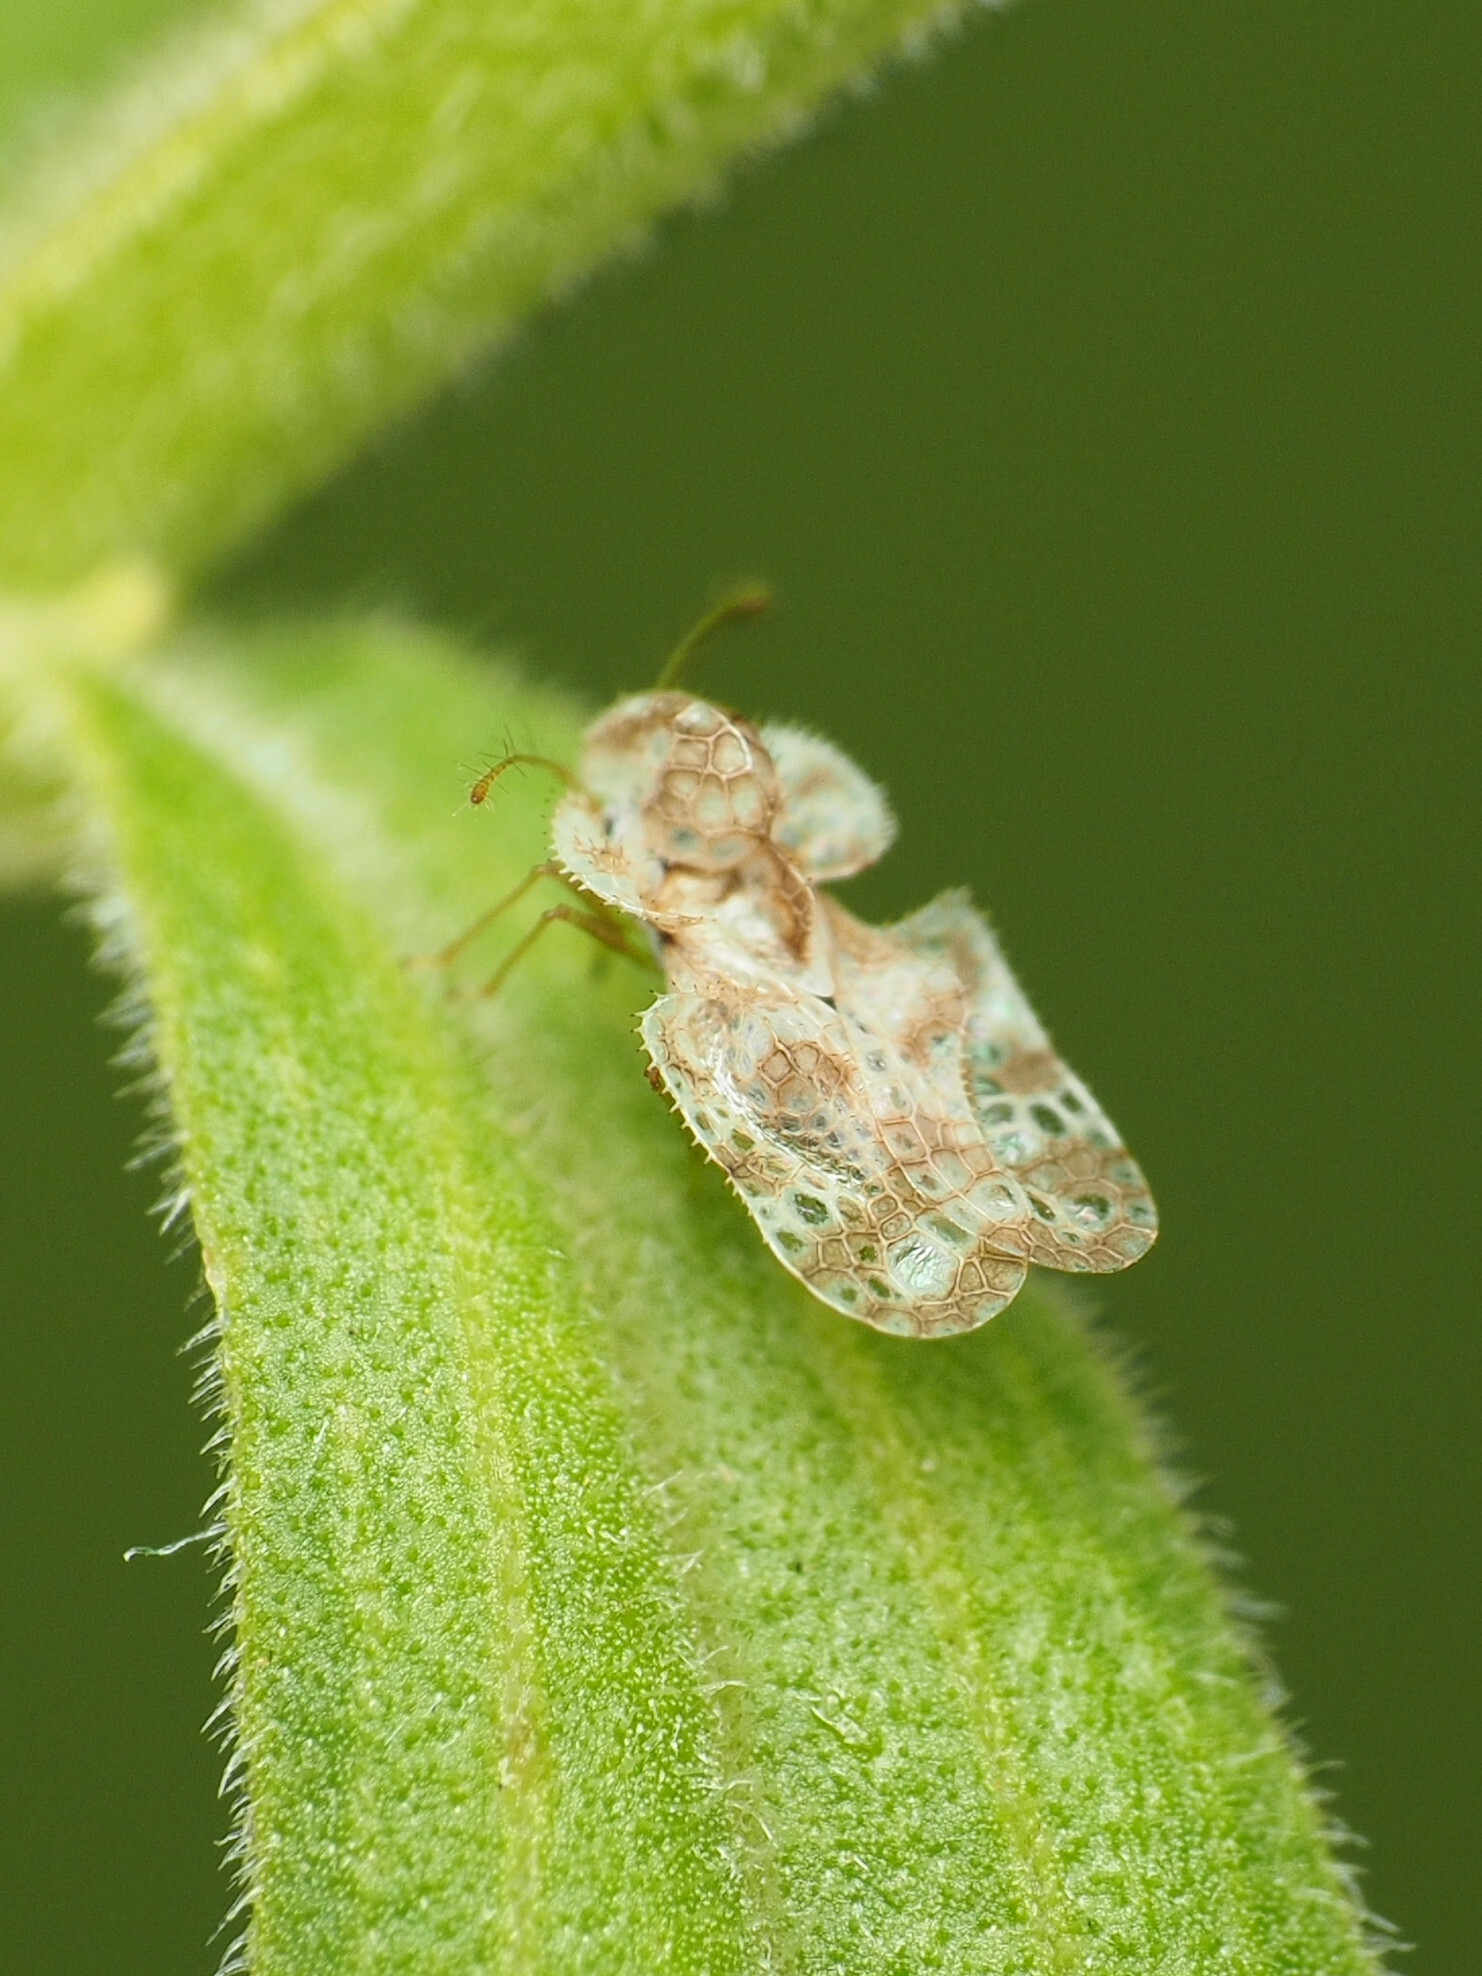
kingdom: Animalia
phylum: Arthropoda
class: Insecta
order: Hemiptera
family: Tingidae
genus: Corythucha
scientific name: Corythucha marmorata
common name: Chrysanthemum lace bug
